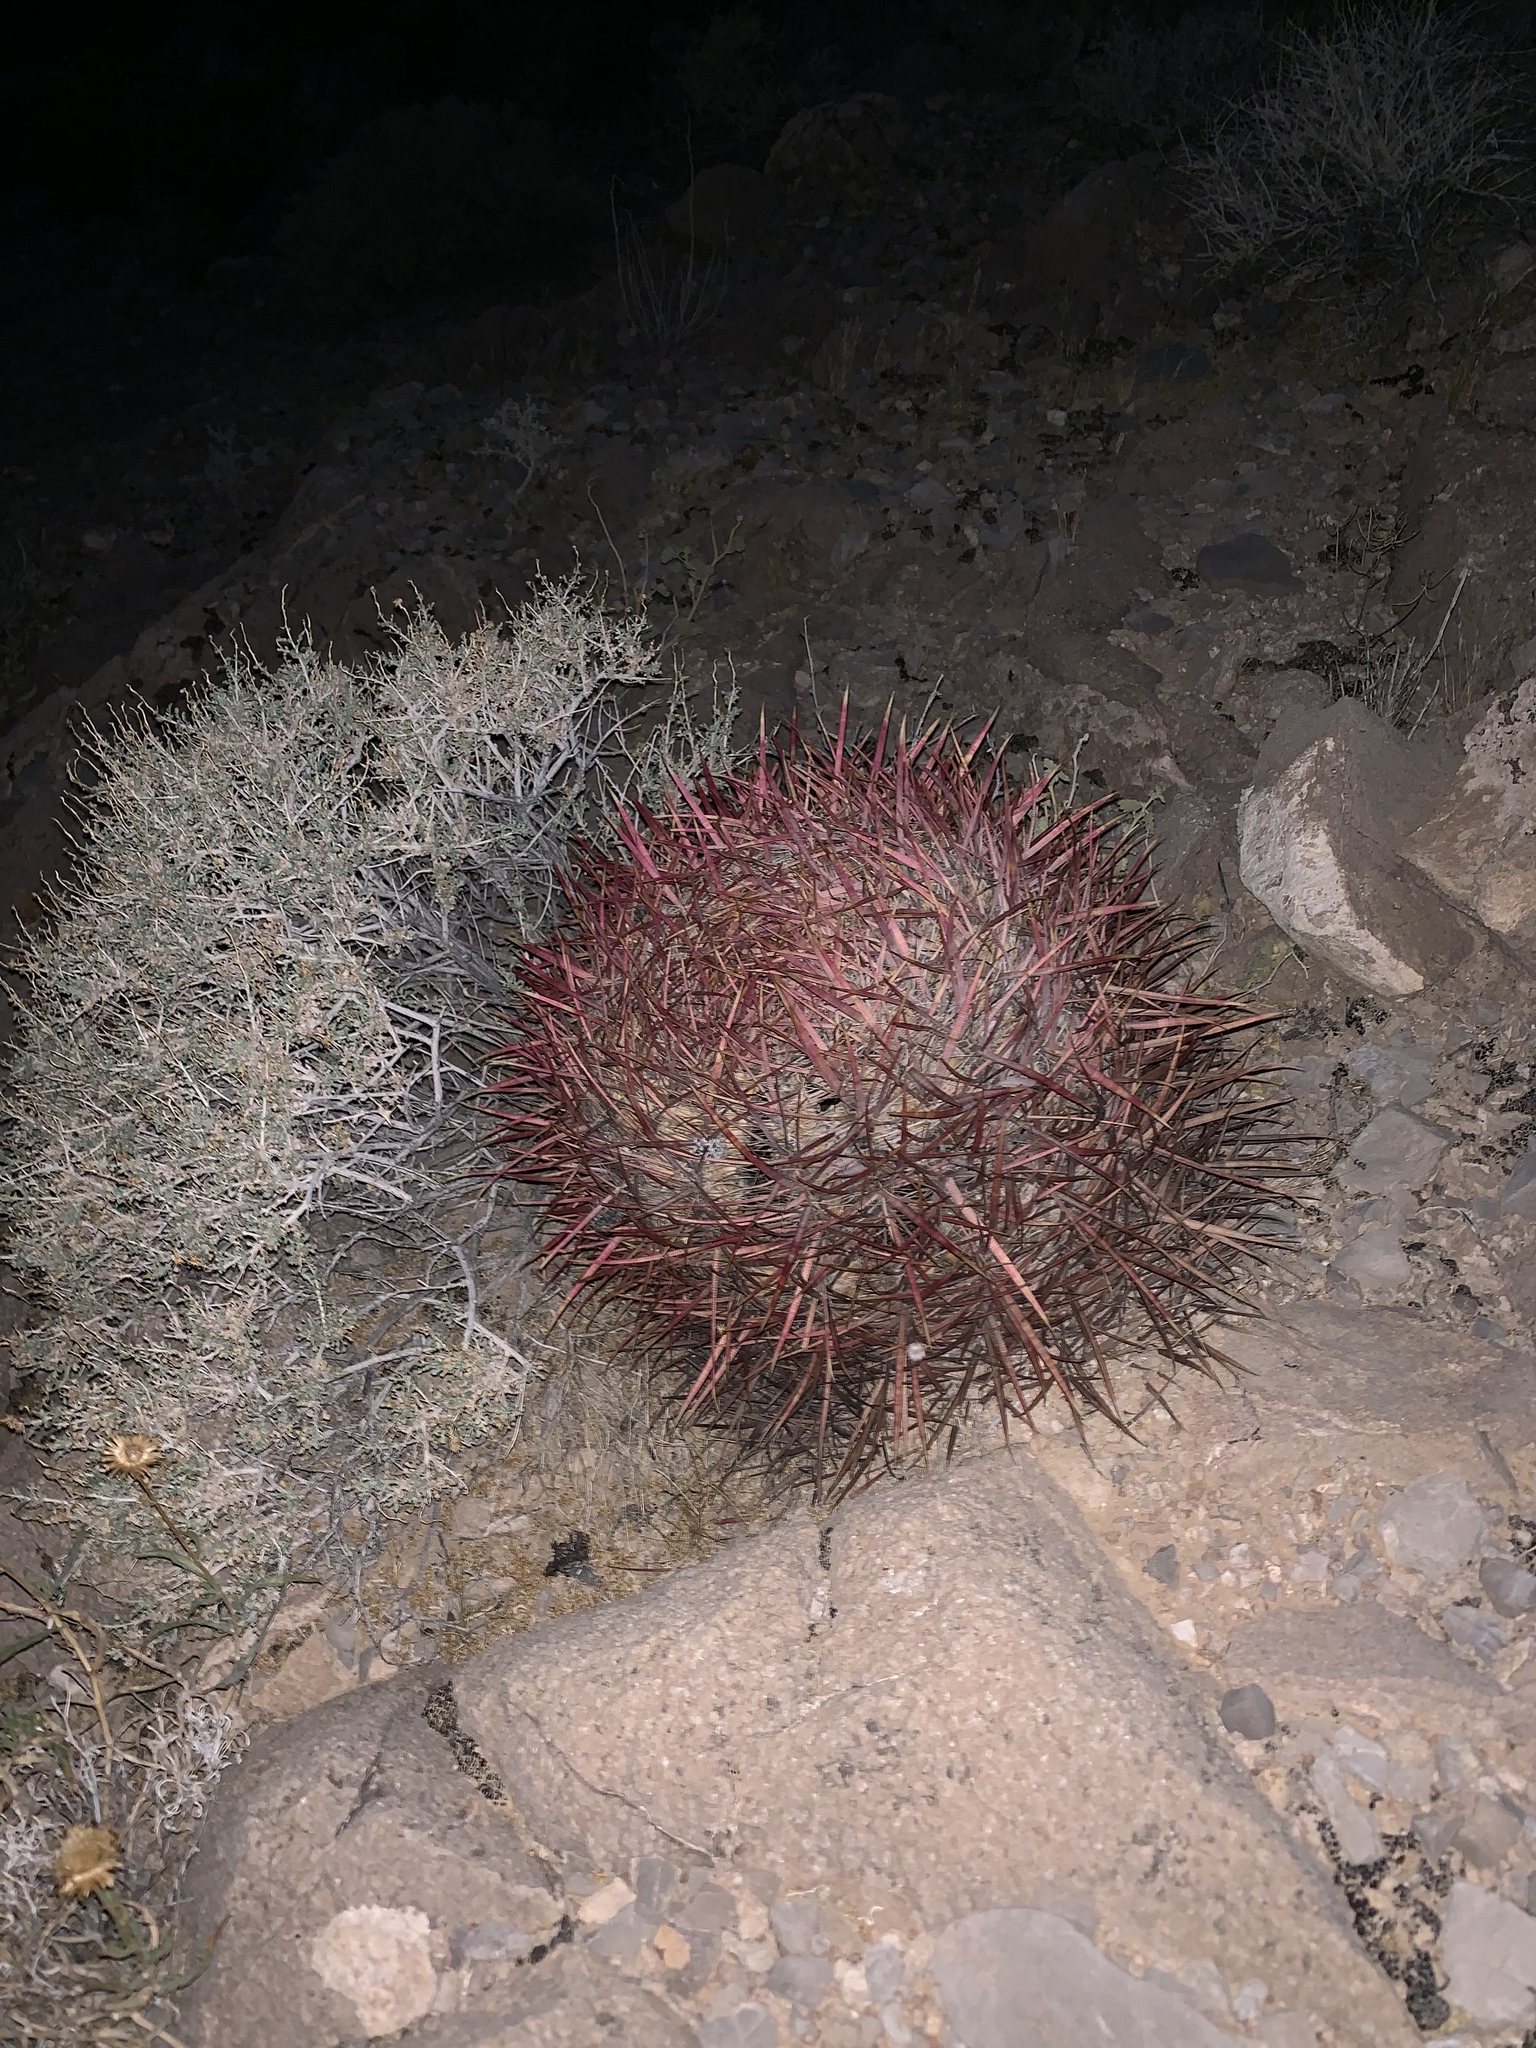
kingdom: Plantae
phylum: Tracheophyta
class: Magnoliopsida
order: Caryophyllales
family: Cactaceae
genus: Ferocactus
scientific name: Ferocactus cylindraceus
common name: California barrel cactus
